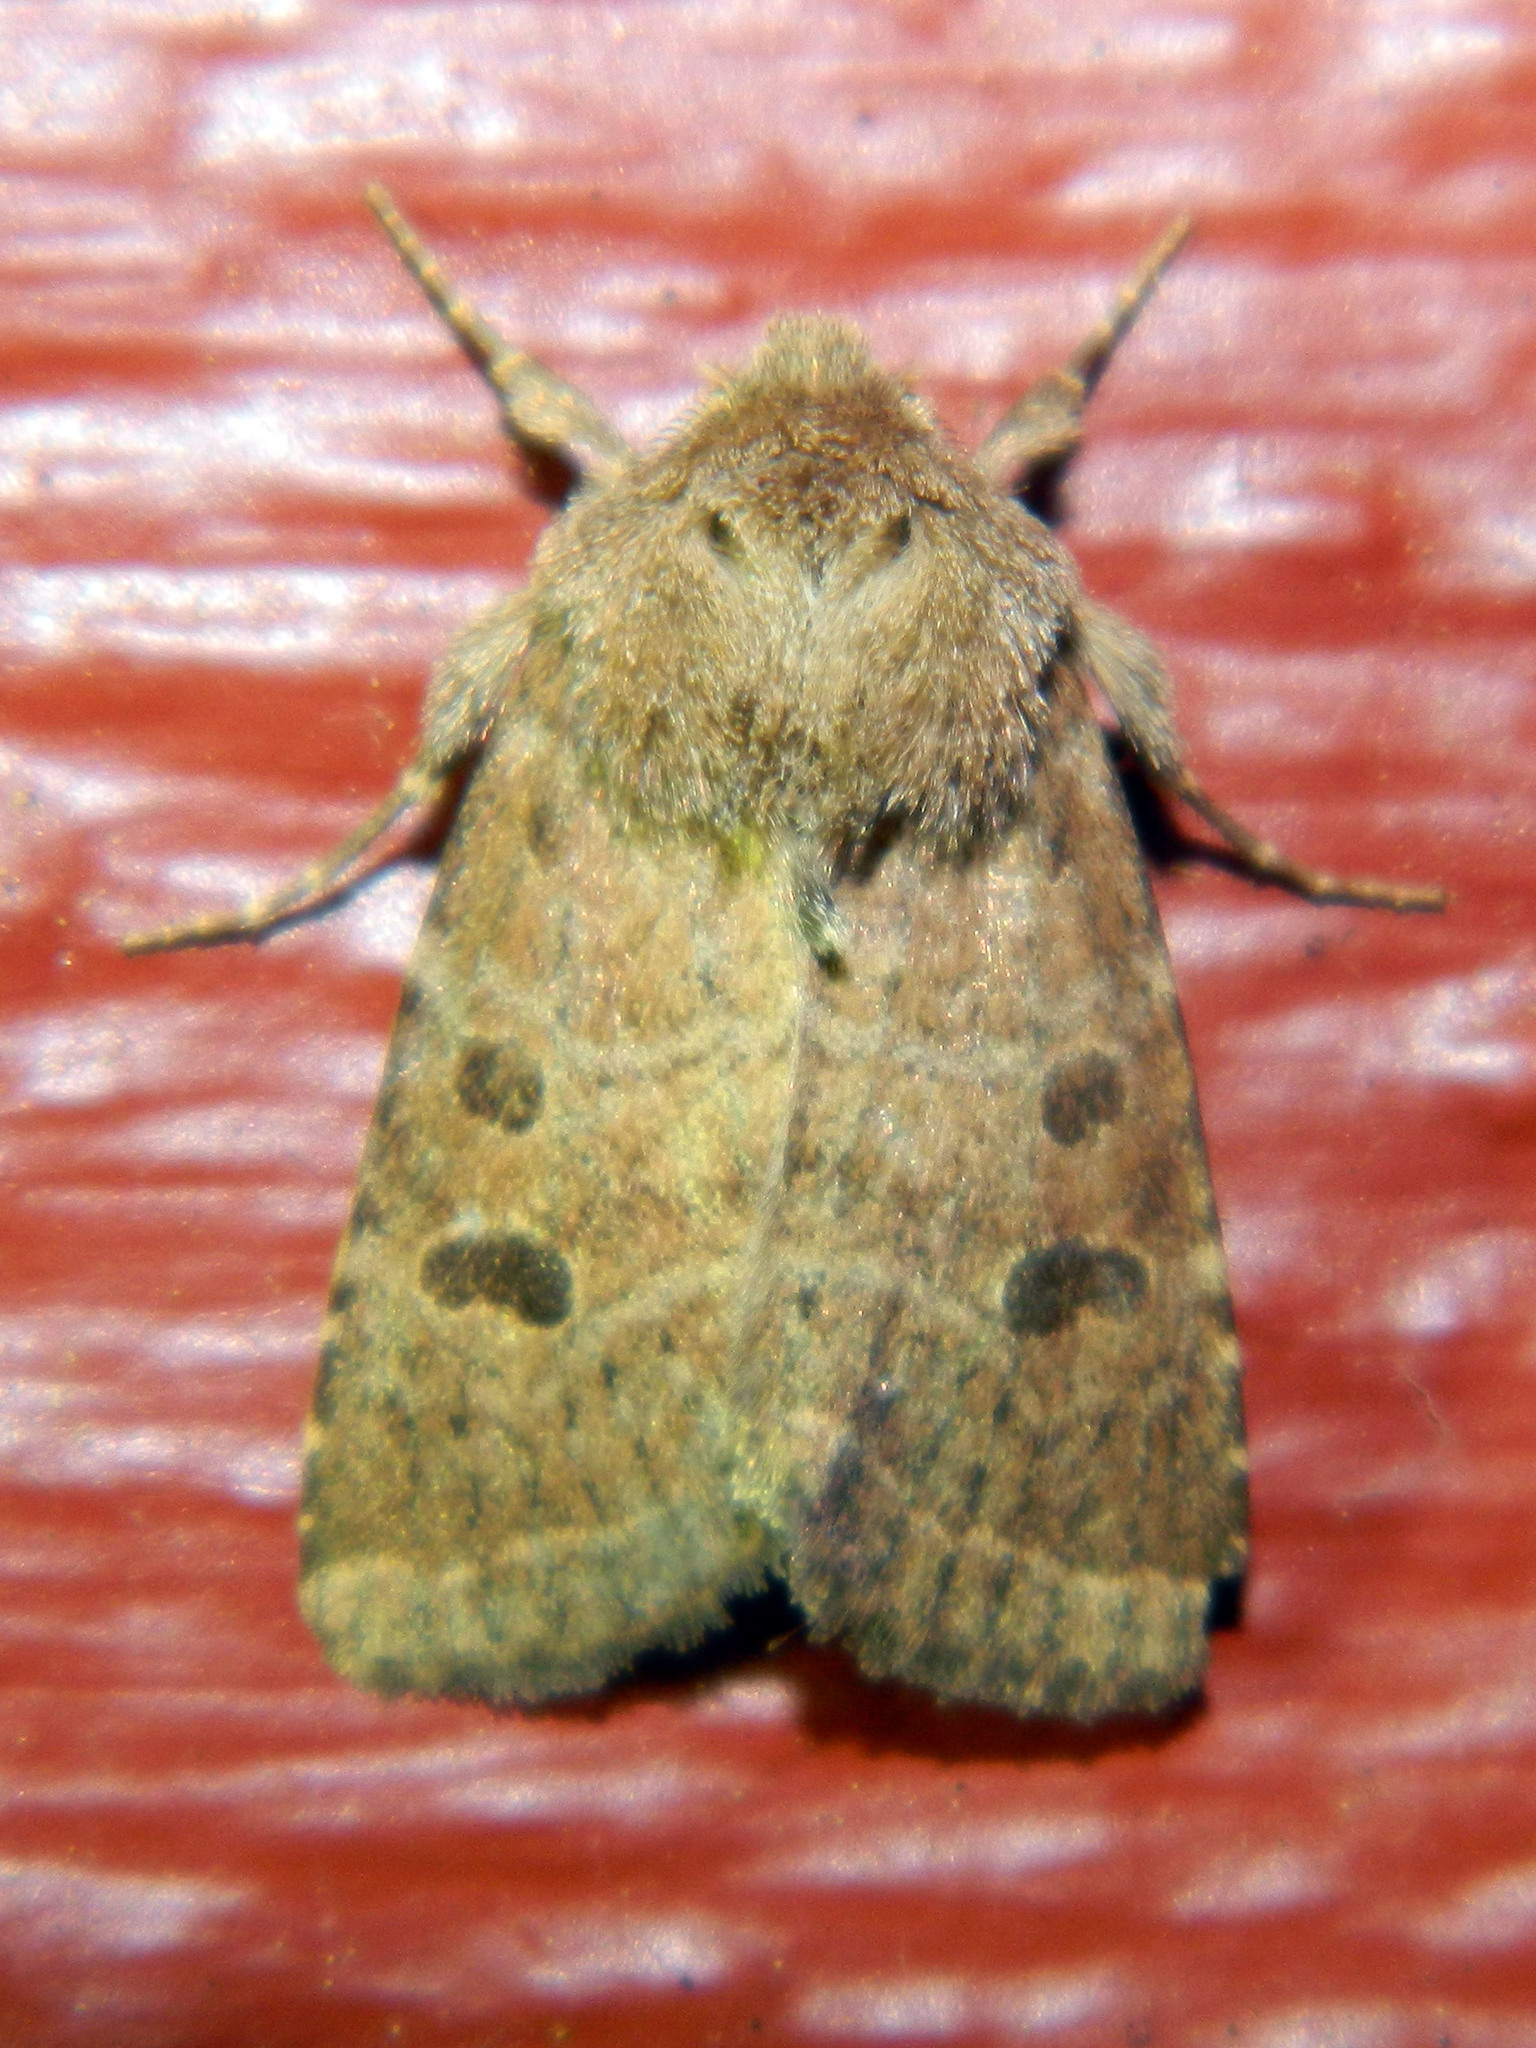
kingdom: Animalia
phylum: Arthropoda
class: Insecta
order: Lepidoptera
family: Noctuidae
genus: Trichopolia
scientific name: Trichopolia
